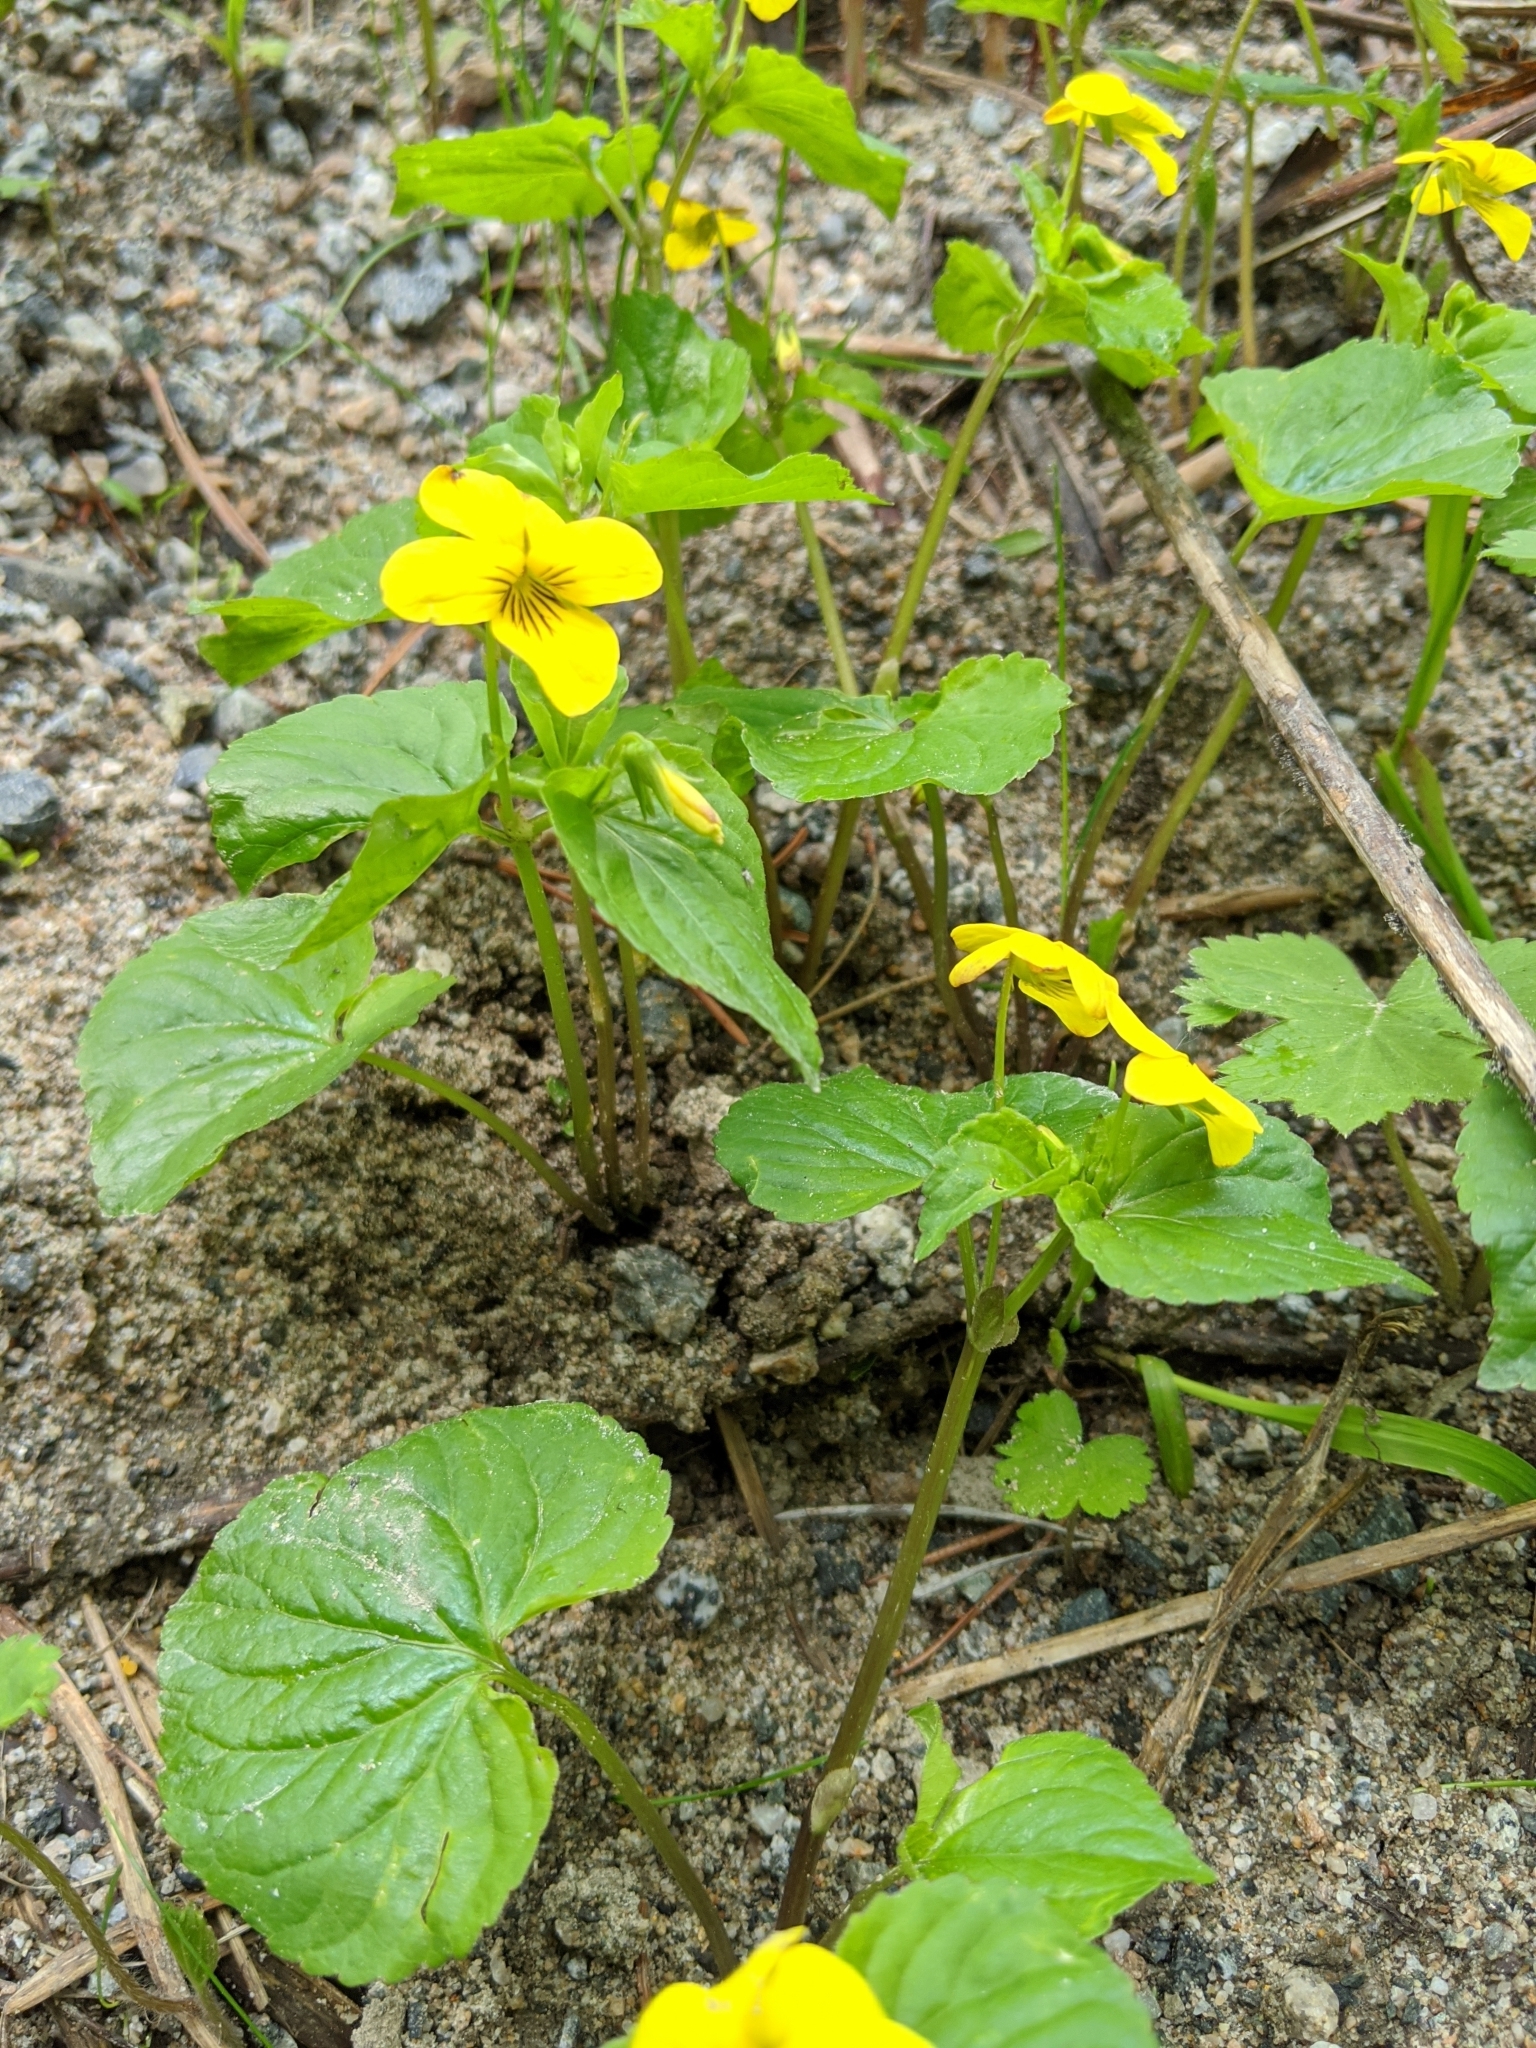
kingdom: Plantae
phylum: Tracheophyta
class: Magnoliopsida
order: Malpighiales
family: Violaceae
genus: Viola
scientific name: Viola glabella
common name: Stream violet
